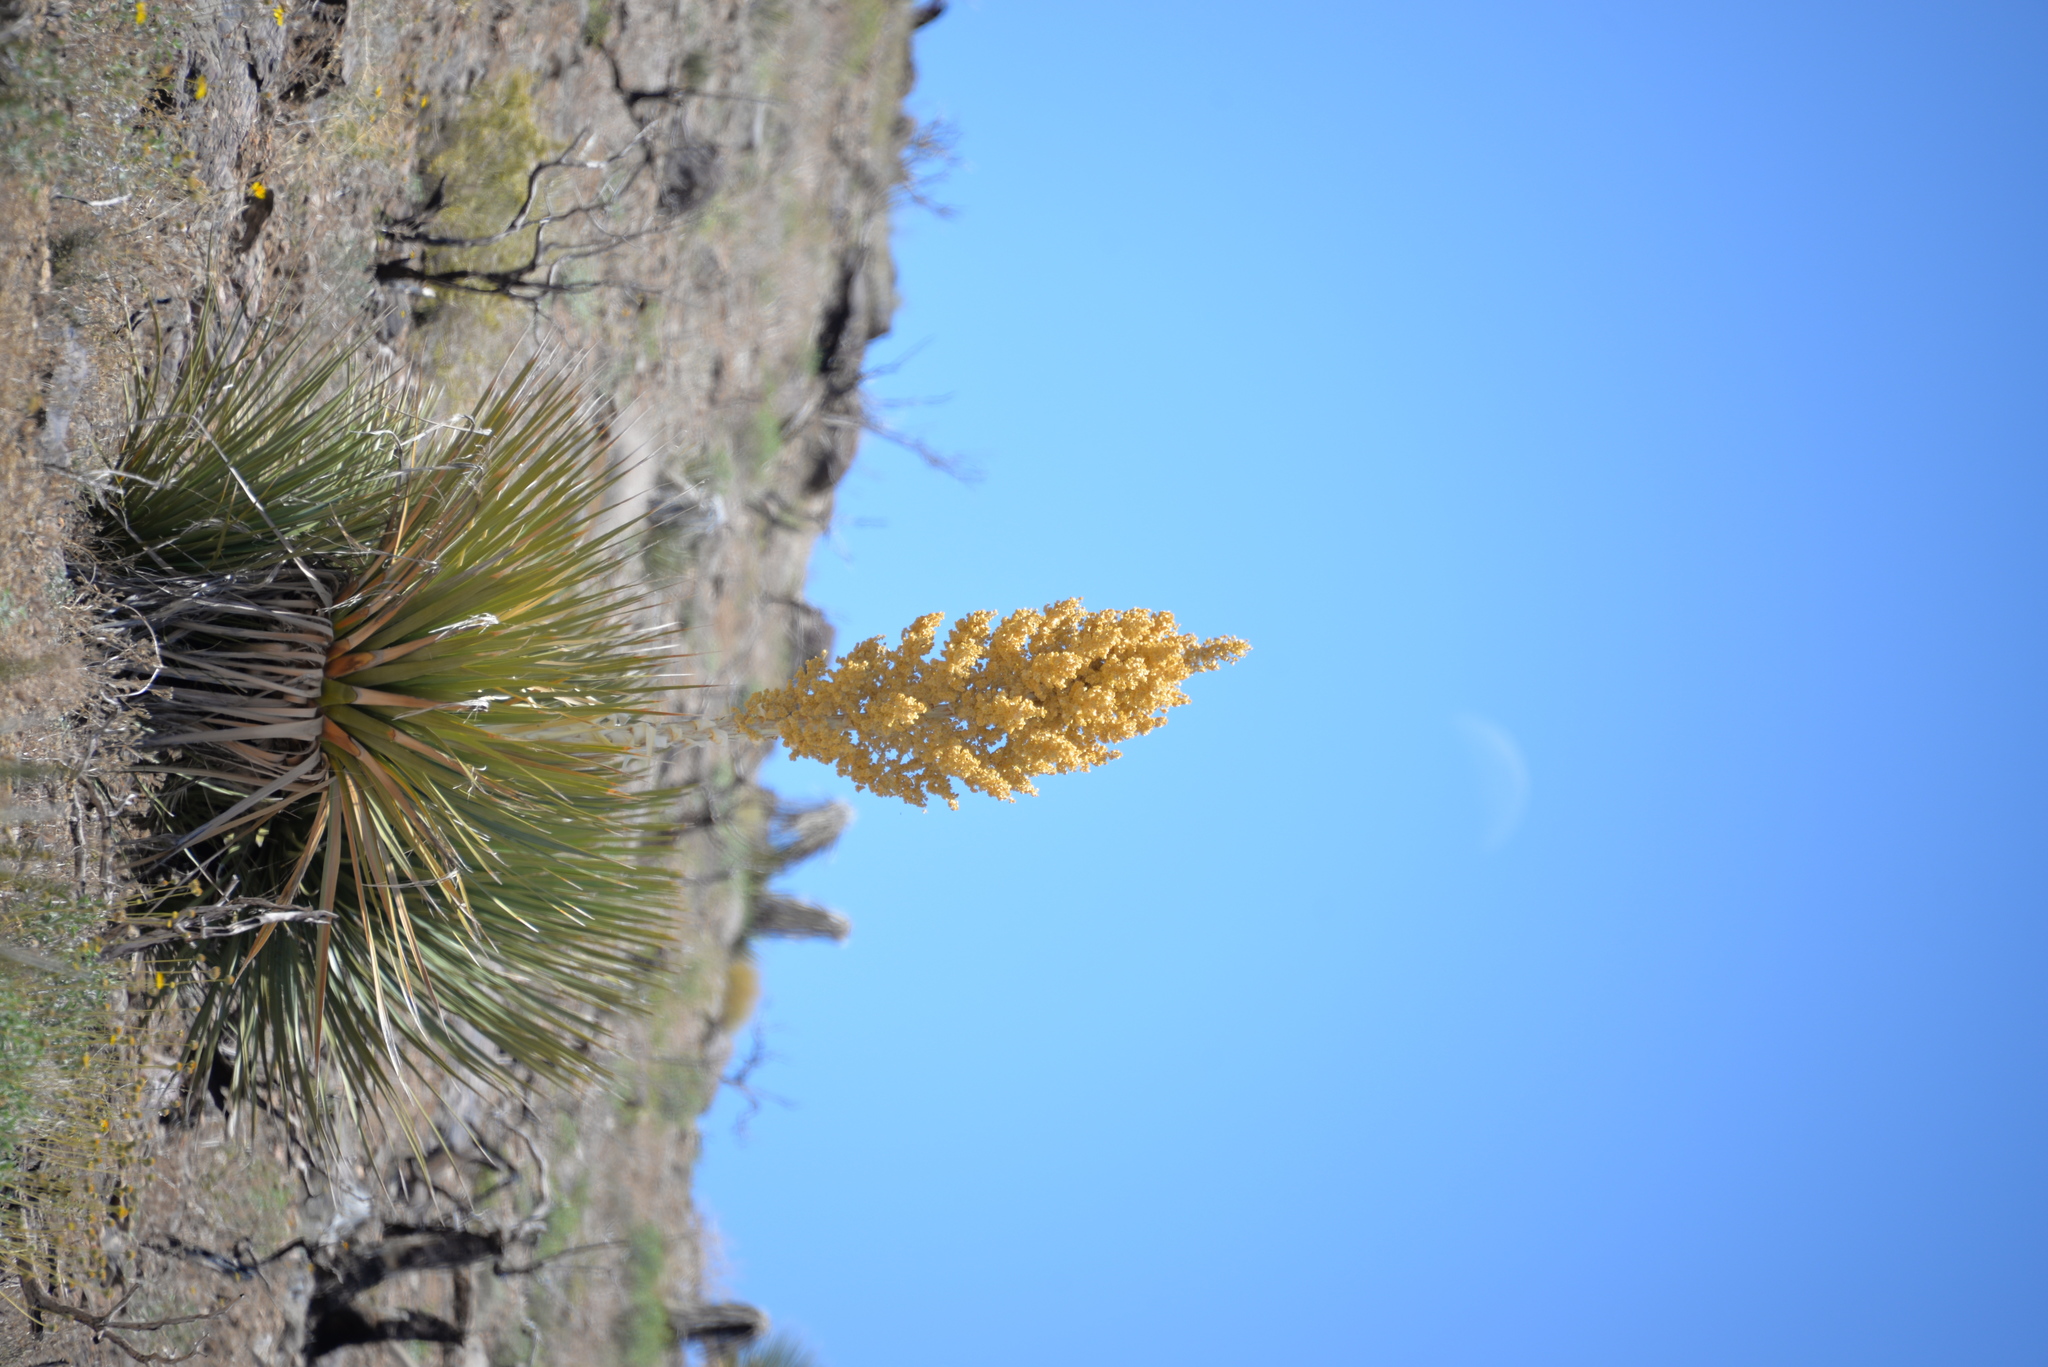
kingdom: Plantae
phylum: Tracheophyta
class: Liliopsida
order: Asparagales
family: Asparagaceae
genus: Nolina
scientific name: Nolina parryi
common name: Parry nolina
